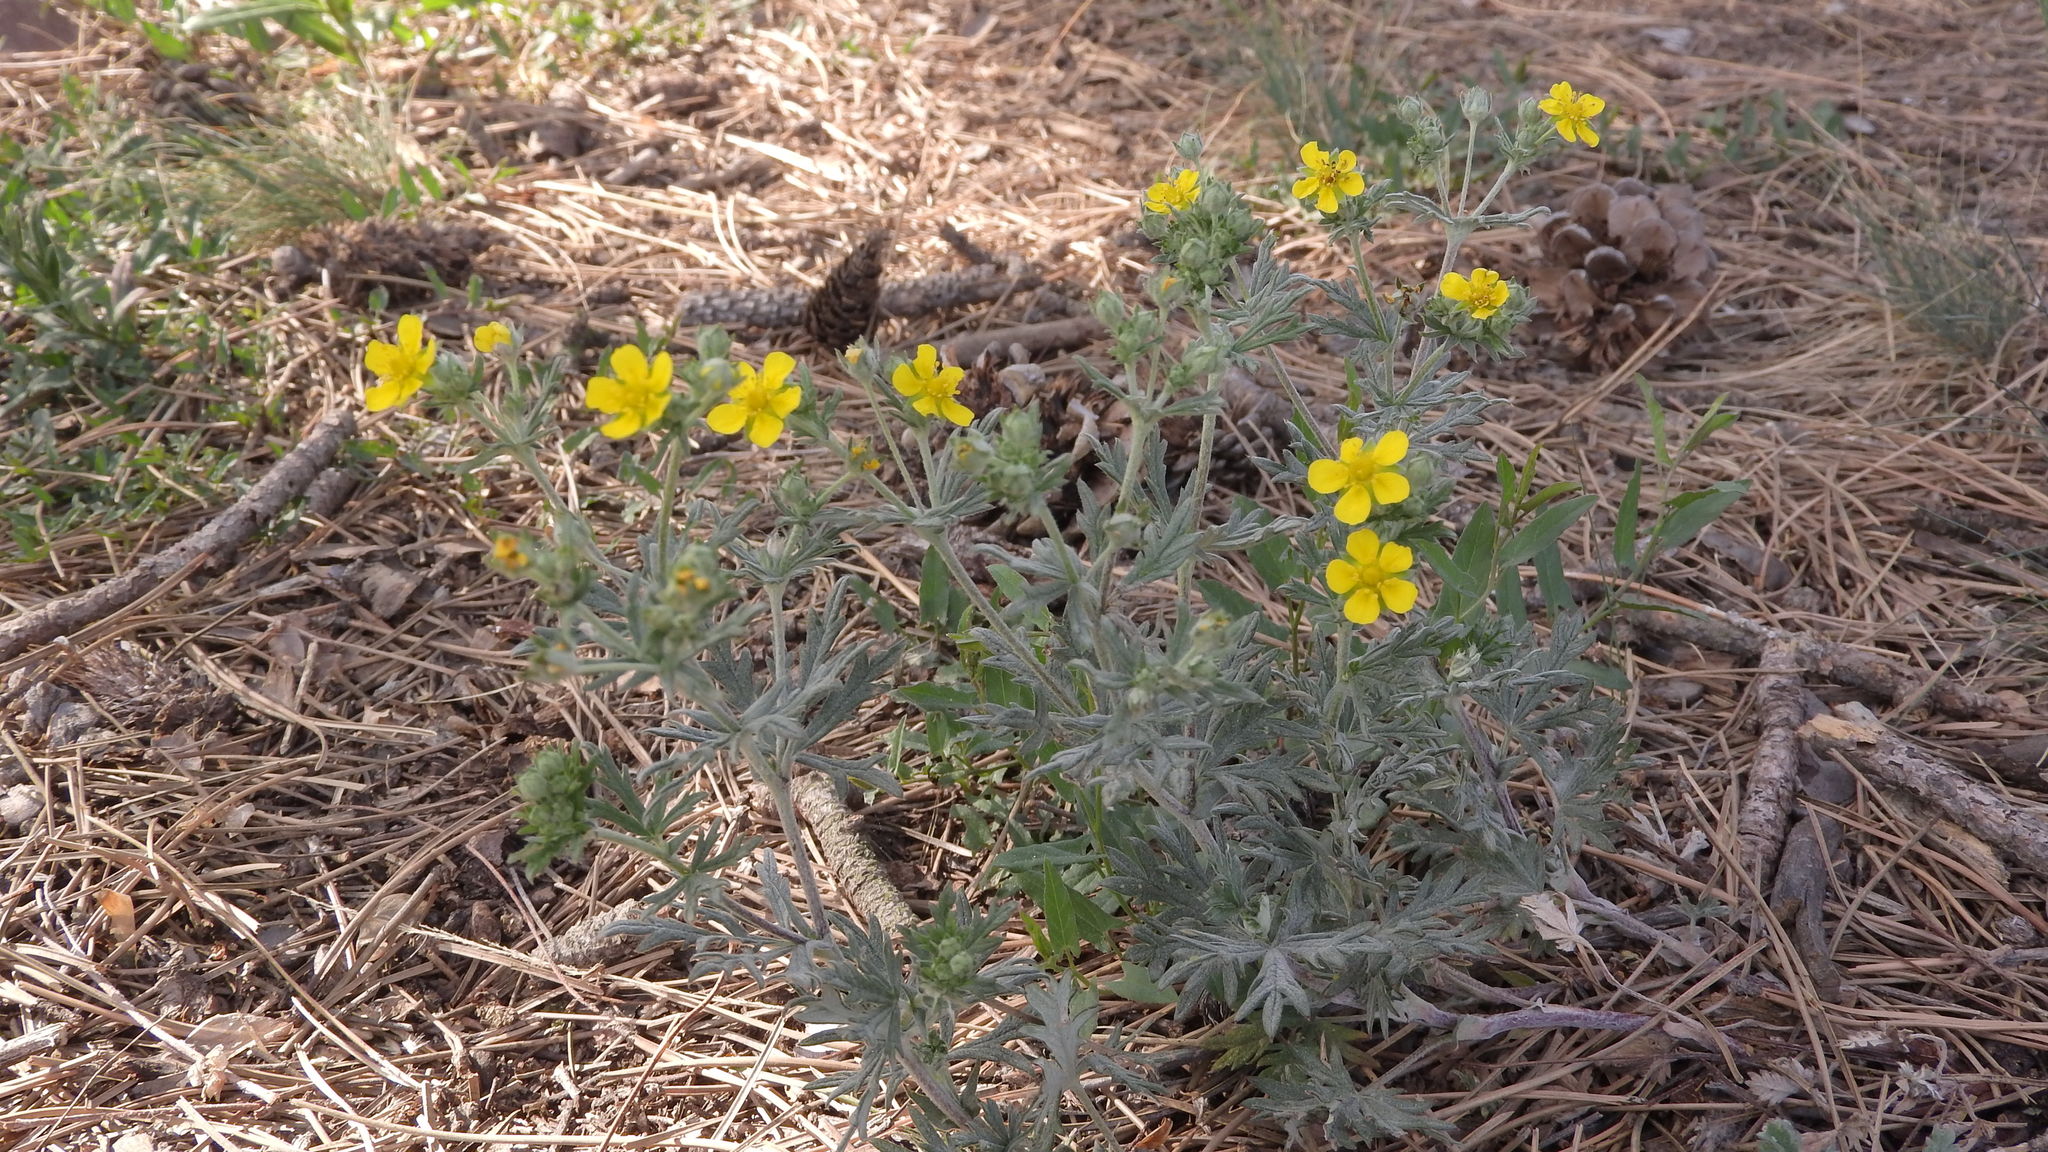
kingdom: Plantae
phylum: Tracheophyta
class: Magnoliopsida
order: Rosales
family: Rosaceae
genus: Potentilla
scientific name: Potentilla argentea
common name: Hoary cinquefoil
